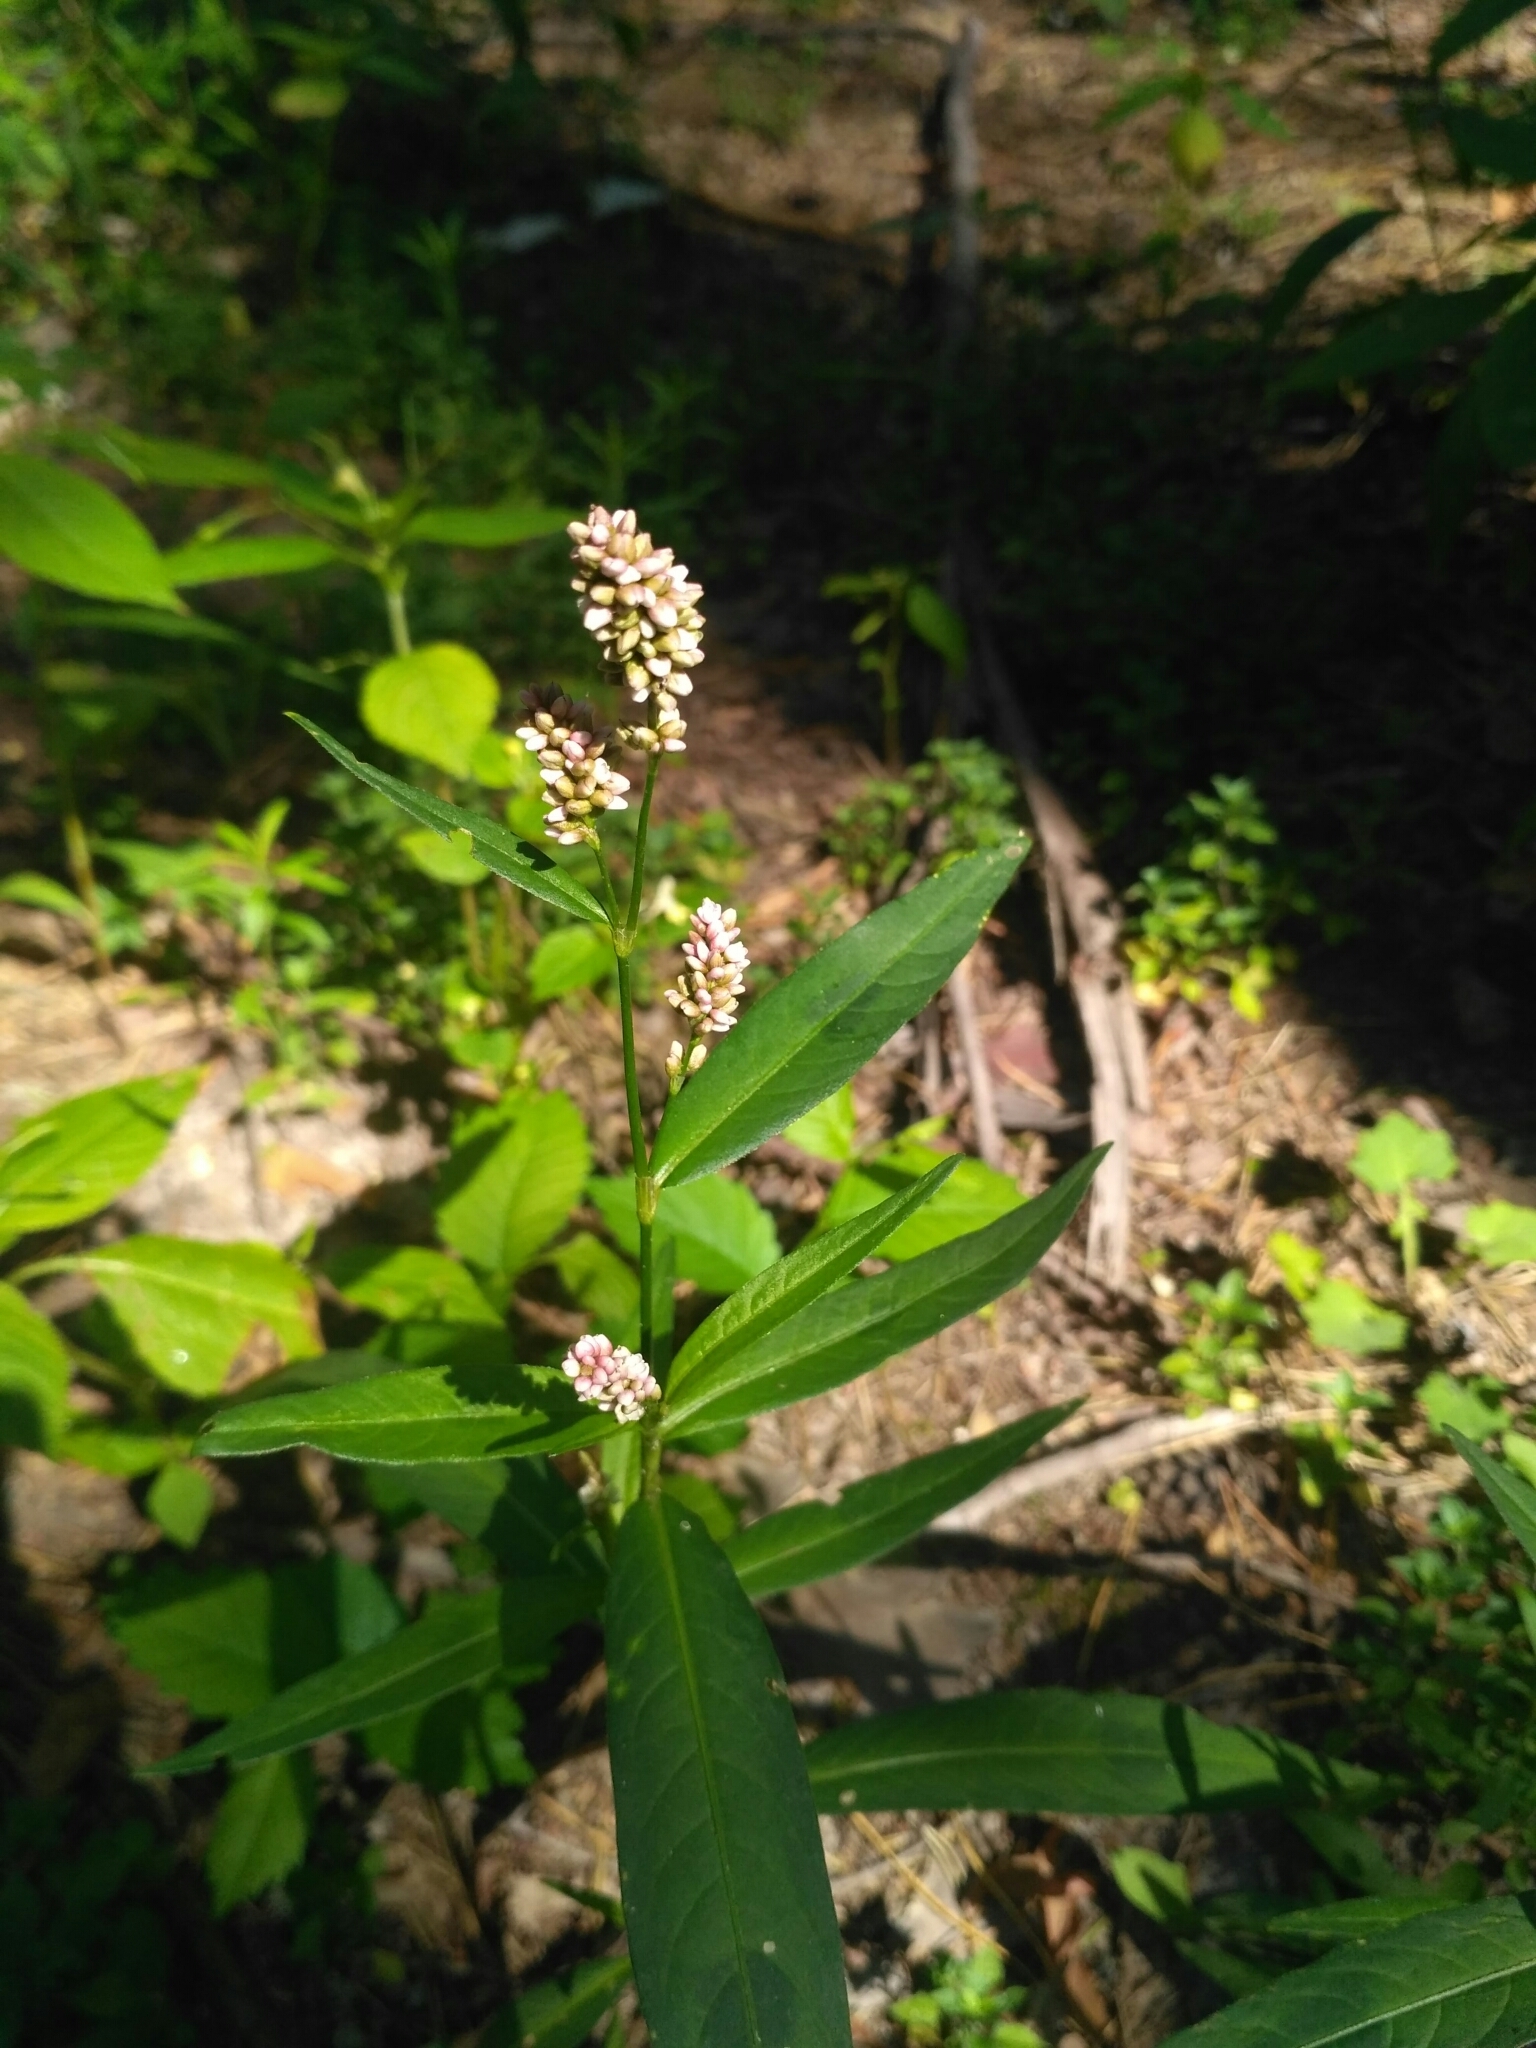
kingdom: Plantae
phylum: Tracheophyta
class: Magnoliopsida
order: Caryophyllales
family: Polygonaceae
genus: Persicaria
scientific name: Persicaria maculosa
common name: Redshank
